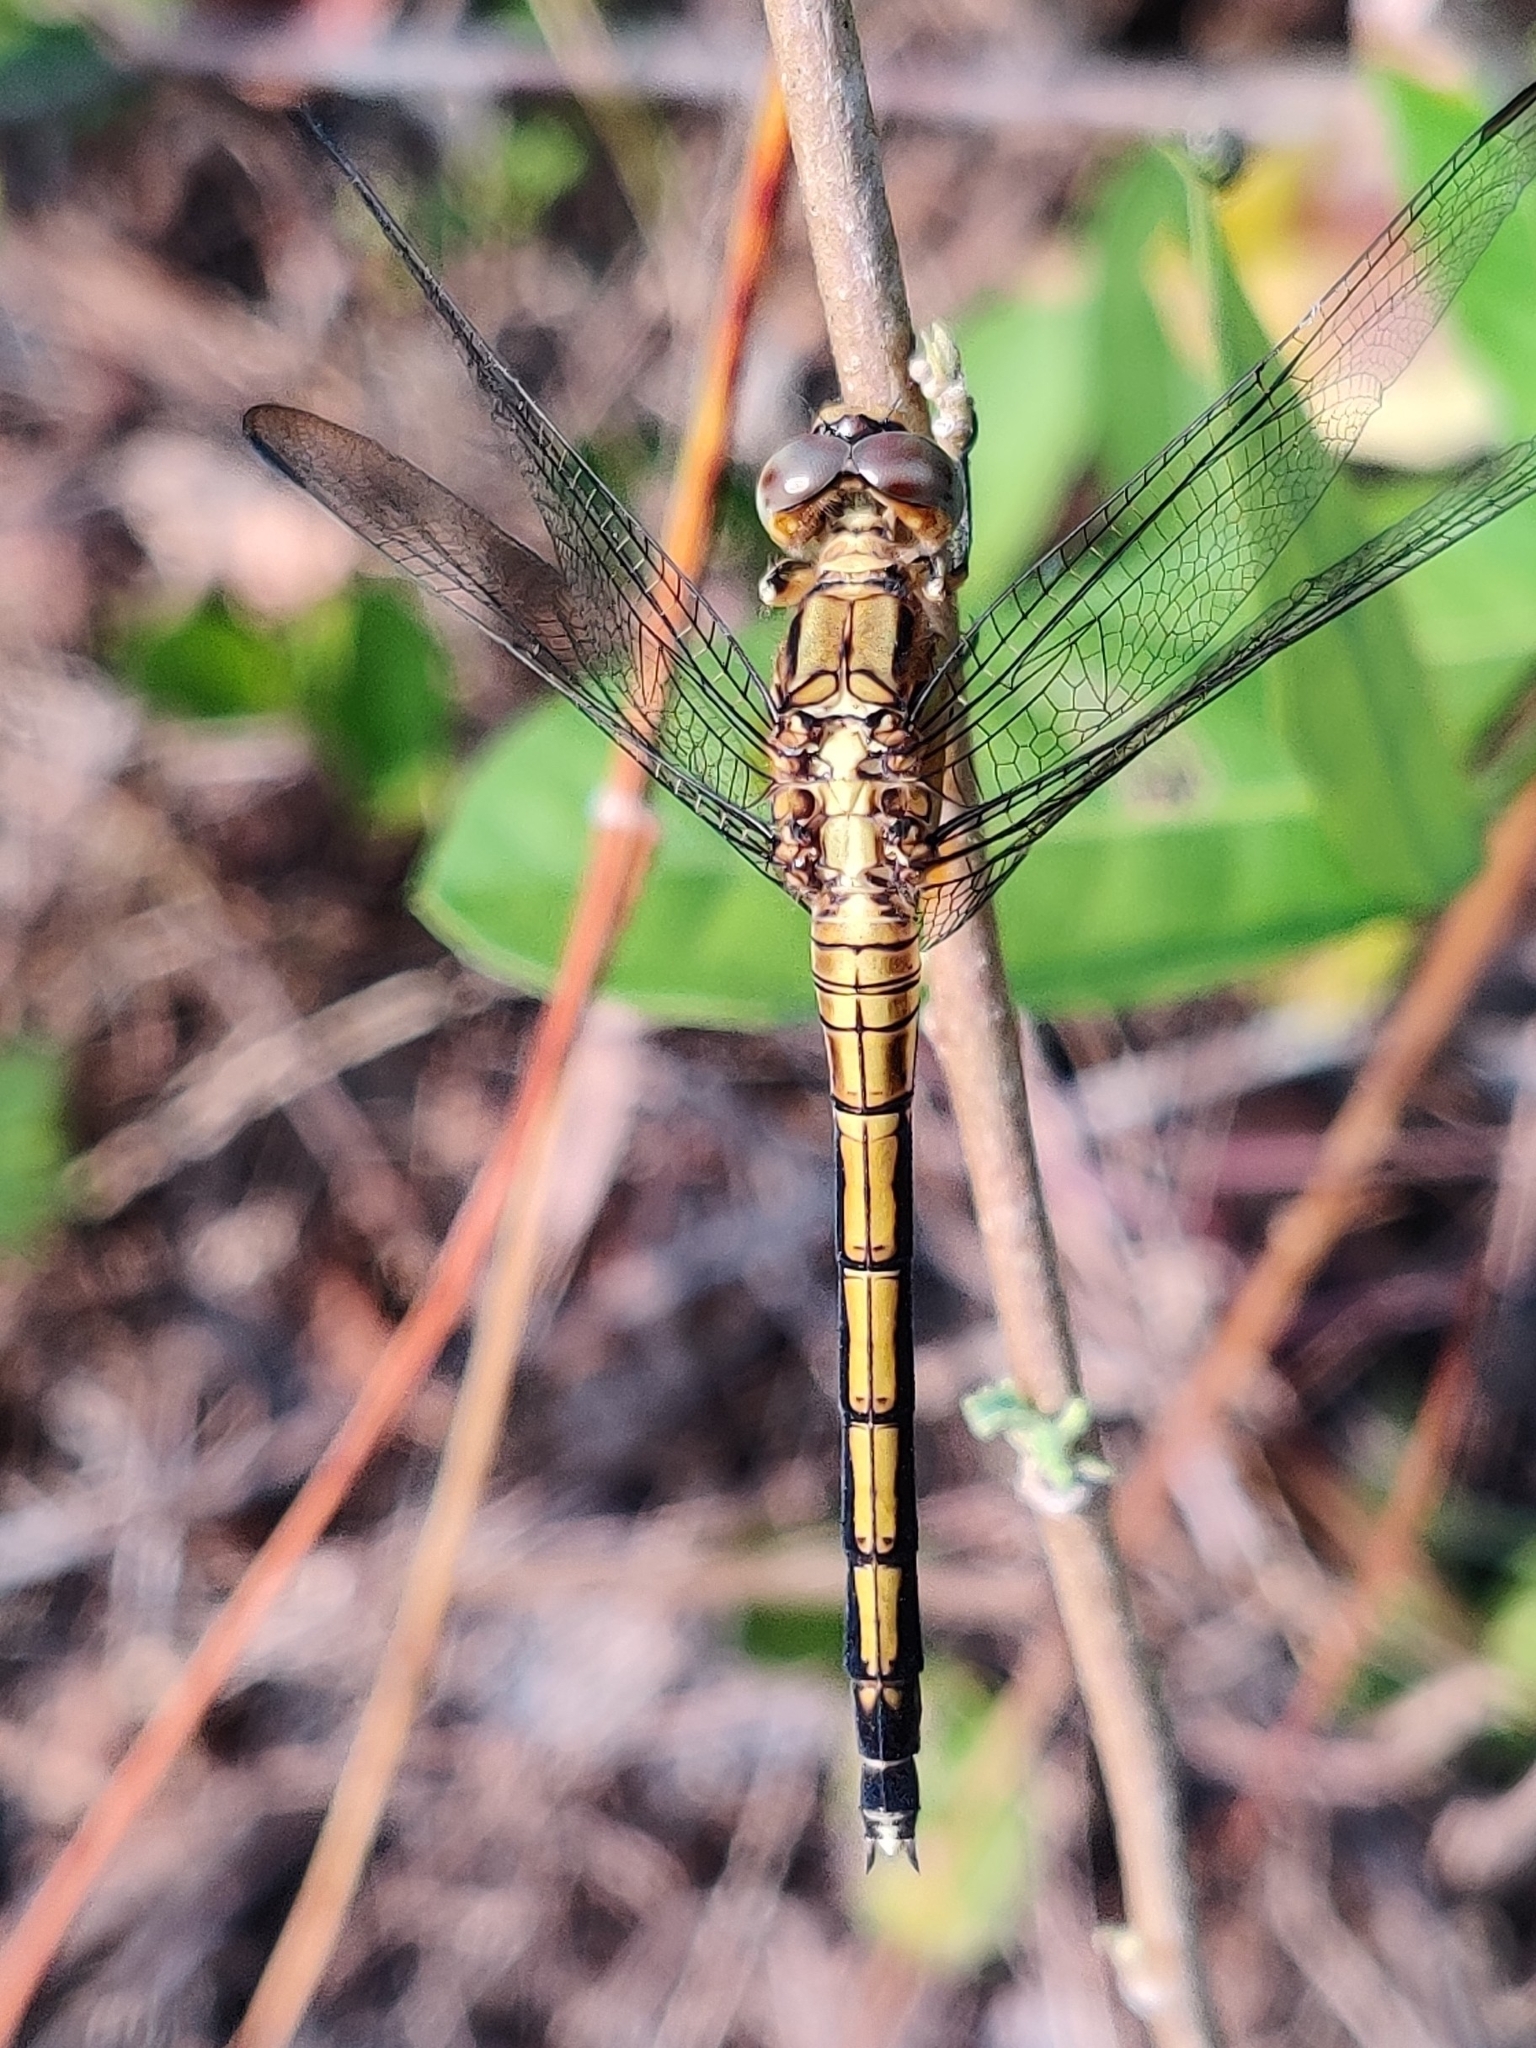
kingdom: Animalia
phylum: Arthropoda
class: Insecta
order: Odonata
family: Libellulidae
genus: Orthetrum
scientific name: Orthetrum luzonicum
